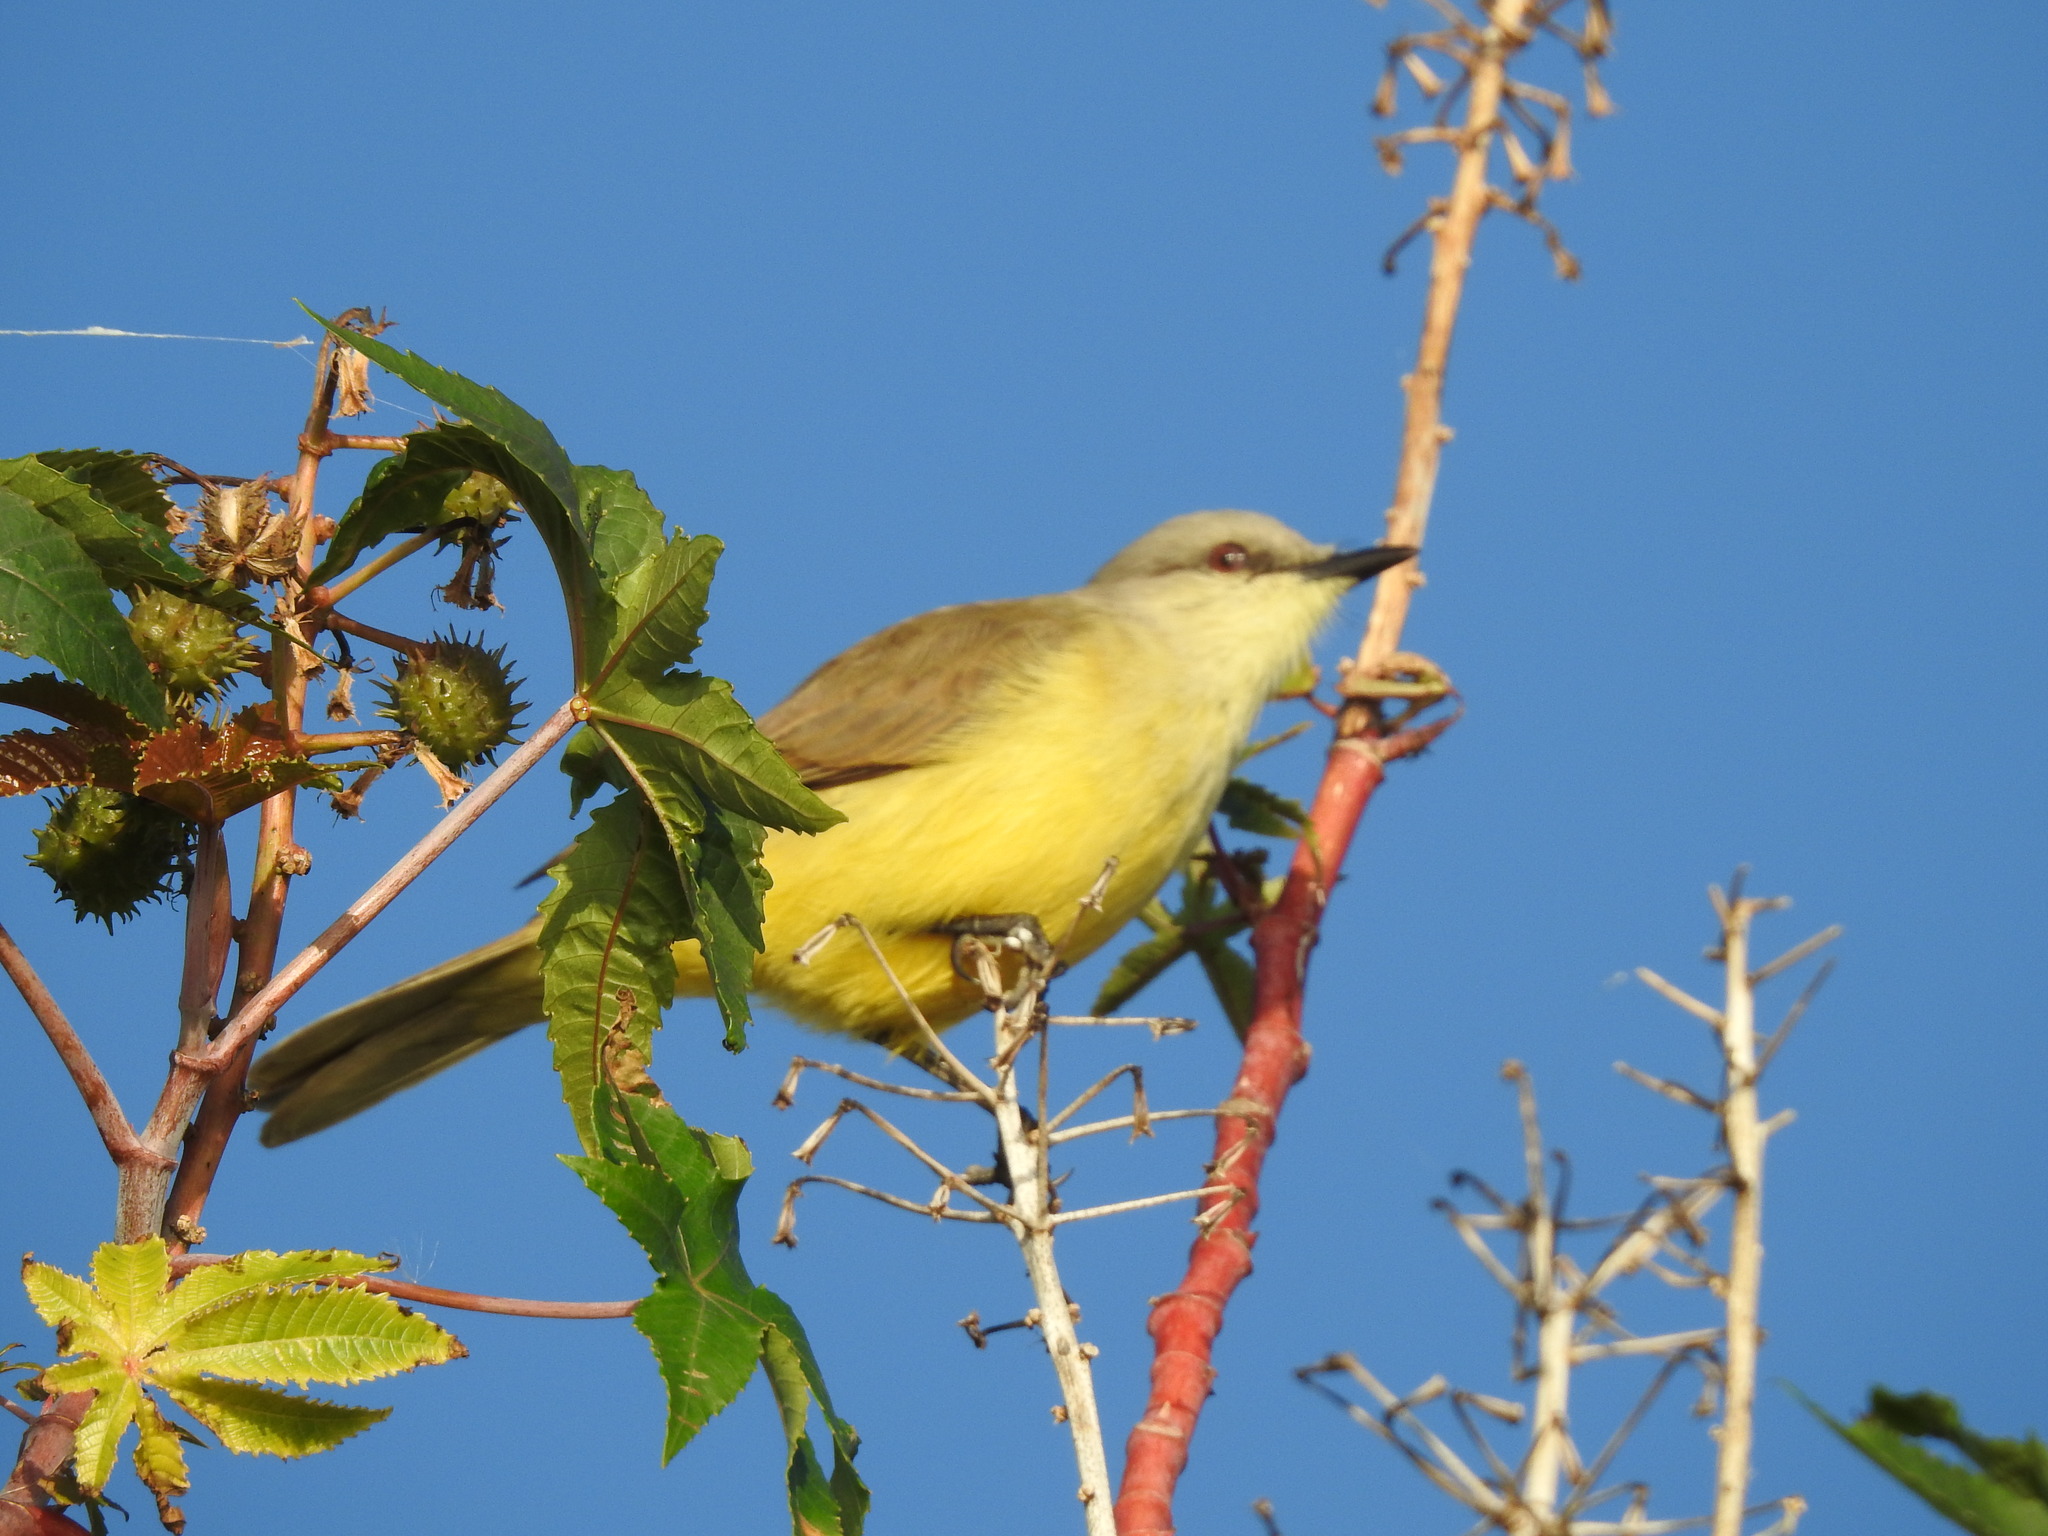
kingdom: Animalia
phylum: Chordata
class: Aves
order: Passeriformes
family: Tyrannidae
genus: Machetornis
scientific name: Machetornis rixosa
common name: Cattle tyrant
